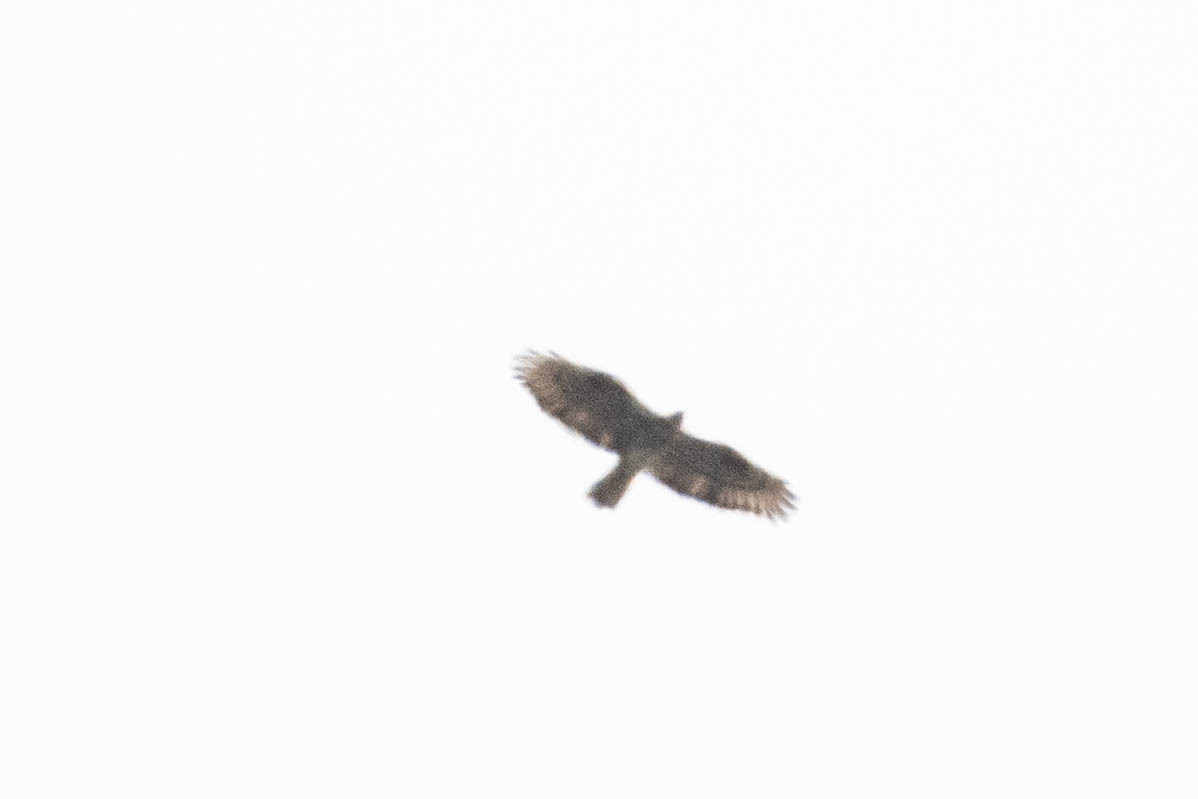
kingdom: Animalia
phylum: Chordata
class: Aves
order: Accipitriformes
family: Accipitridae
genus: Pernis
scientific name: Pernis apivorus
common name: European honey buzzard
